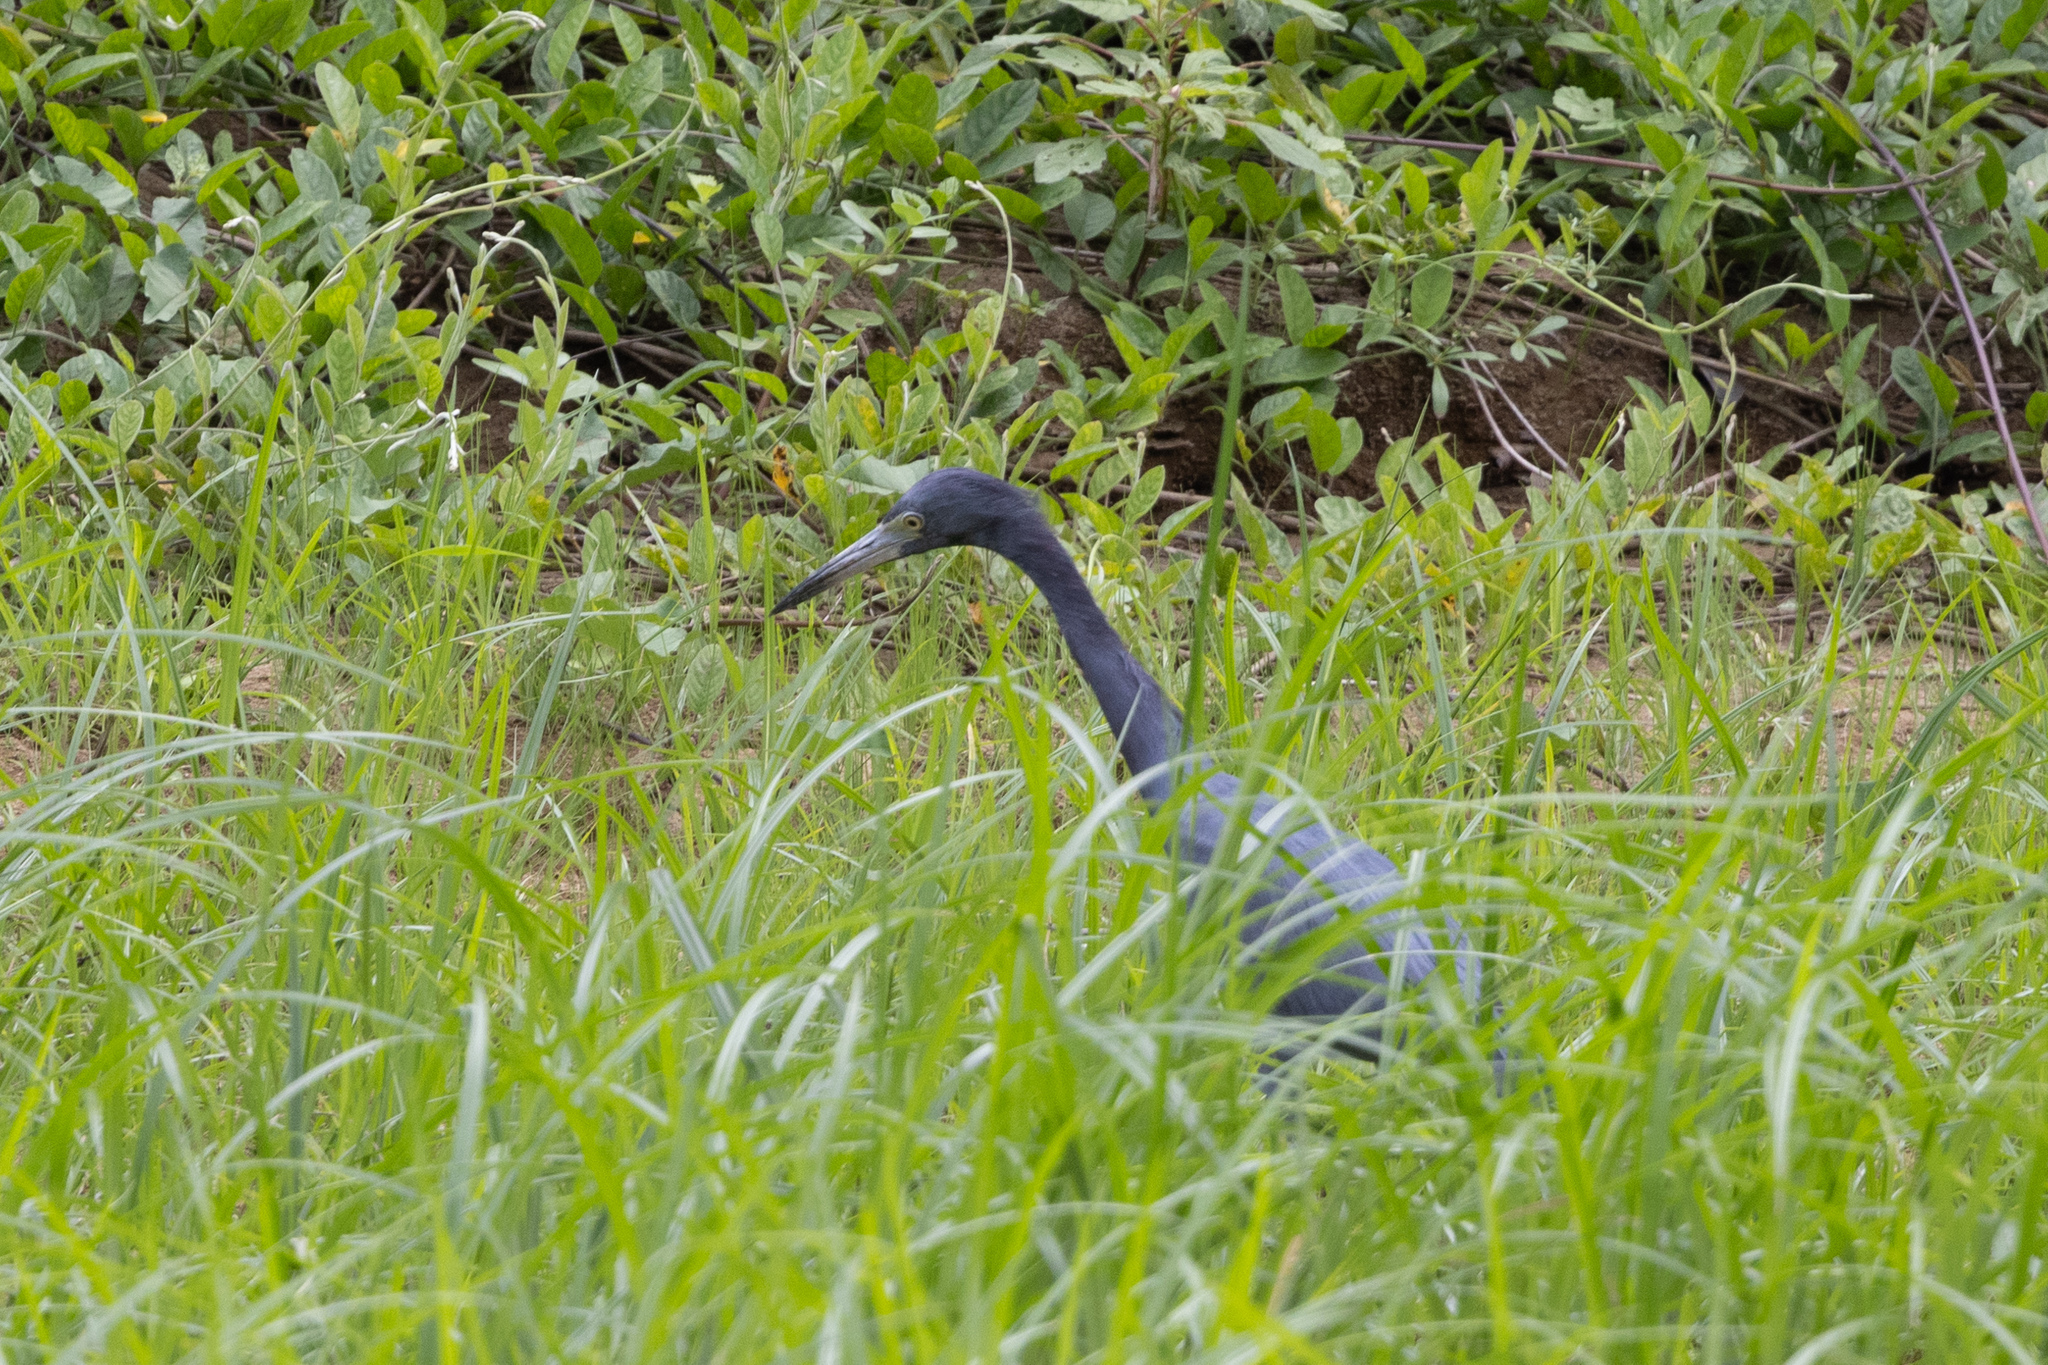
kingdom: Animalia
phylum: Chordata
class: Aves
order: Pelecaniformes
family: Ardeidae
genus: Egretta
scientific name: Egretta caerulea
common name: Little blue heron
